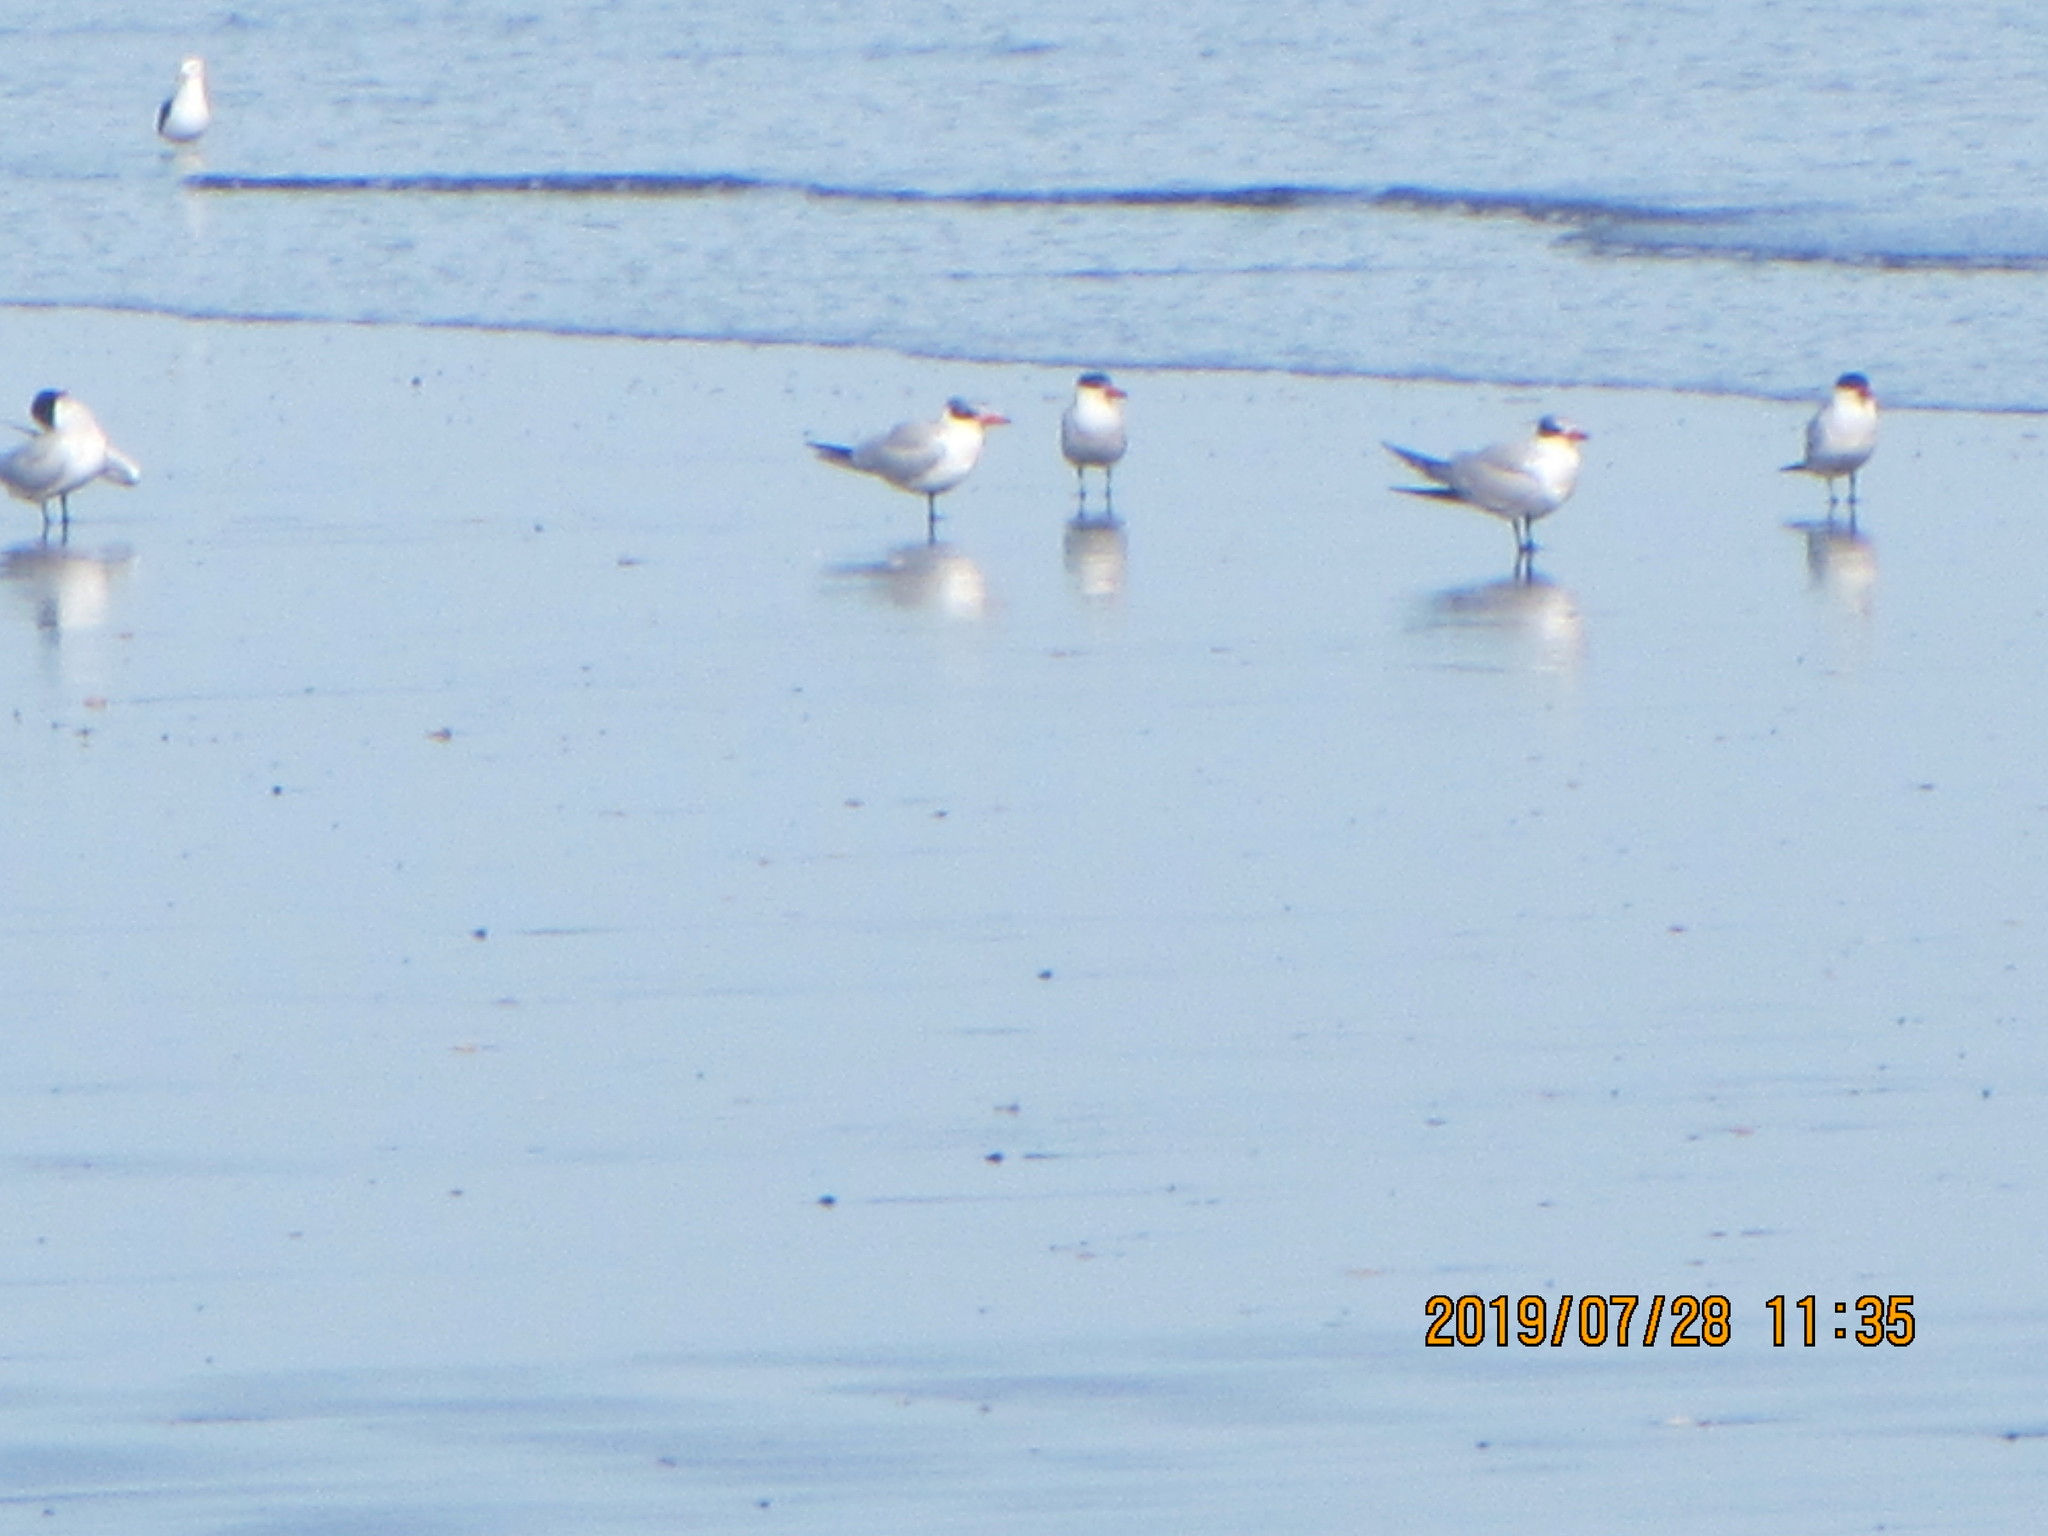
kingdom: Animalia
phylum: Chordata
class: Aves
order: Charadriiformes
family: Laridae
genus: Hydroprogne
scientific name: Hydroprogne caspia
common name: Caspian tern
